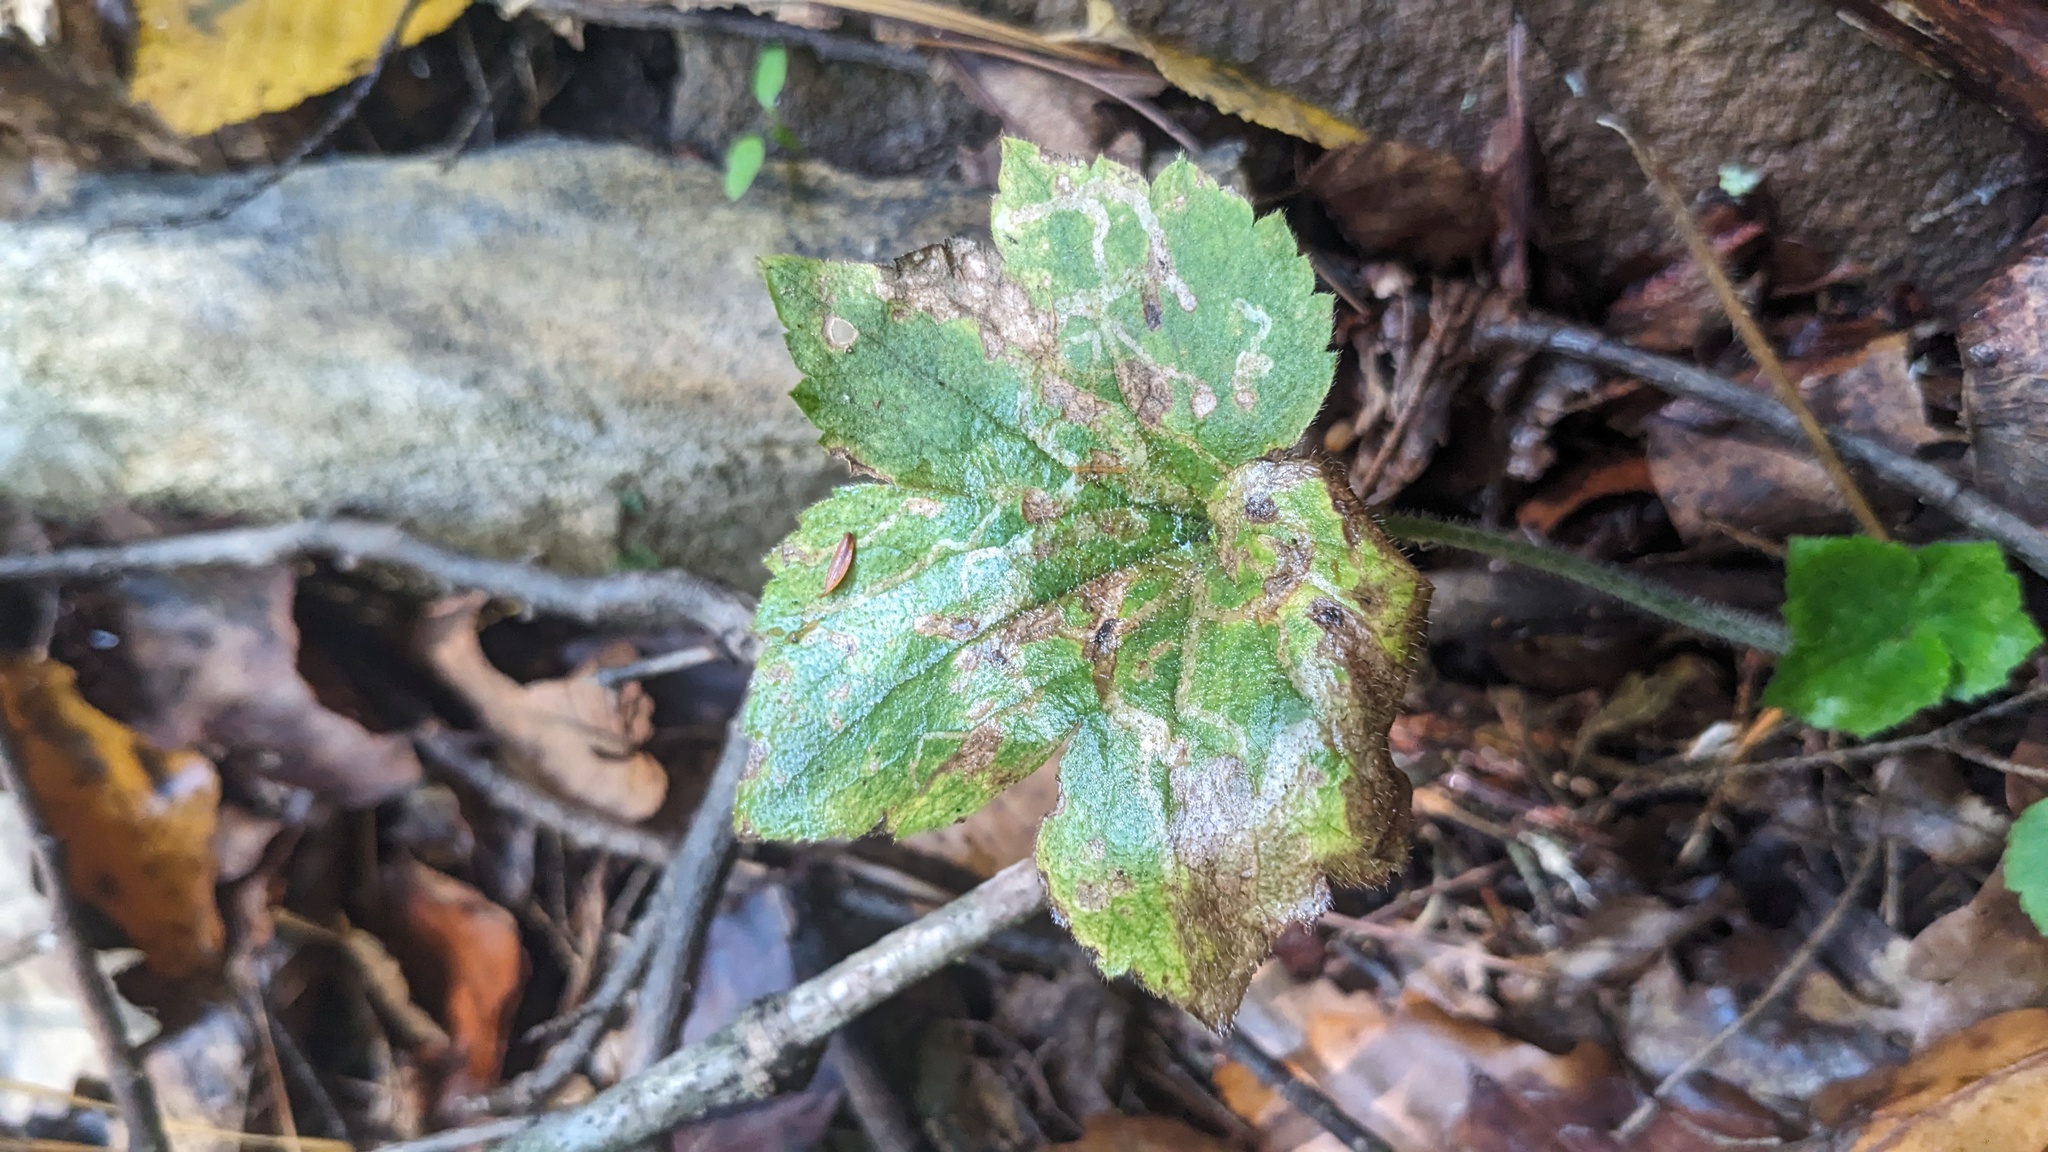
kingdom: Animalia
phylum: Arthropoda
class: Insecta
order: Diptera
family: Agromyzidae
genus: Phytomyza
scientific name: Phytomyza loewii
